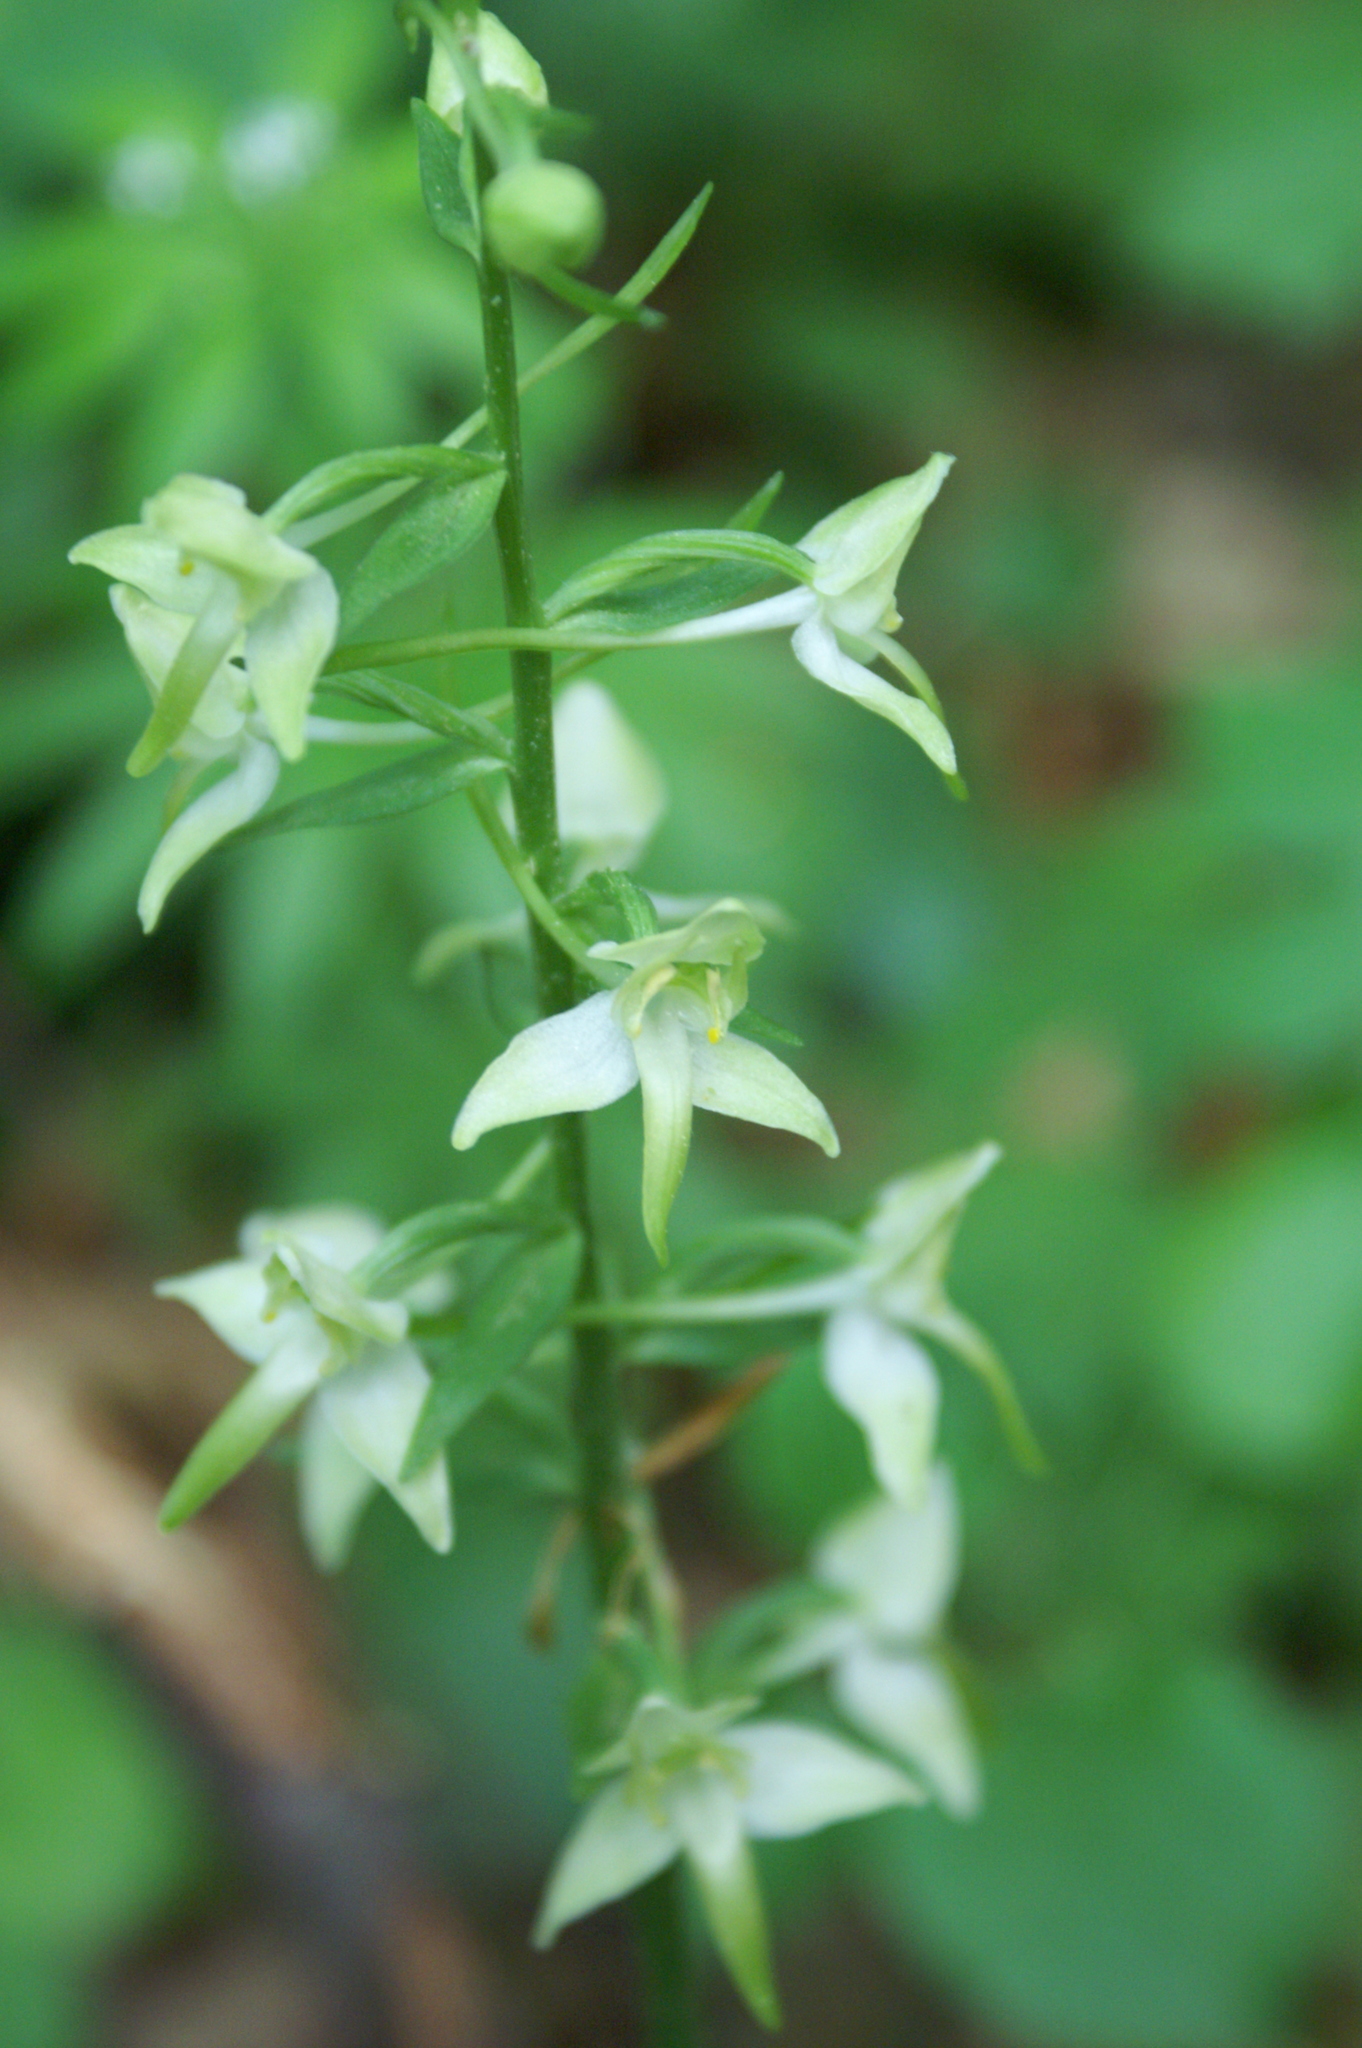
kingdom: Plantae
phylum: Tracheophyta
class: Liliopsida
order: Asparagales
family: Orchidaceae
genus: Platanthera
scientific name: Platanthera chlorantha
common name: Greater butterfly-orchid
